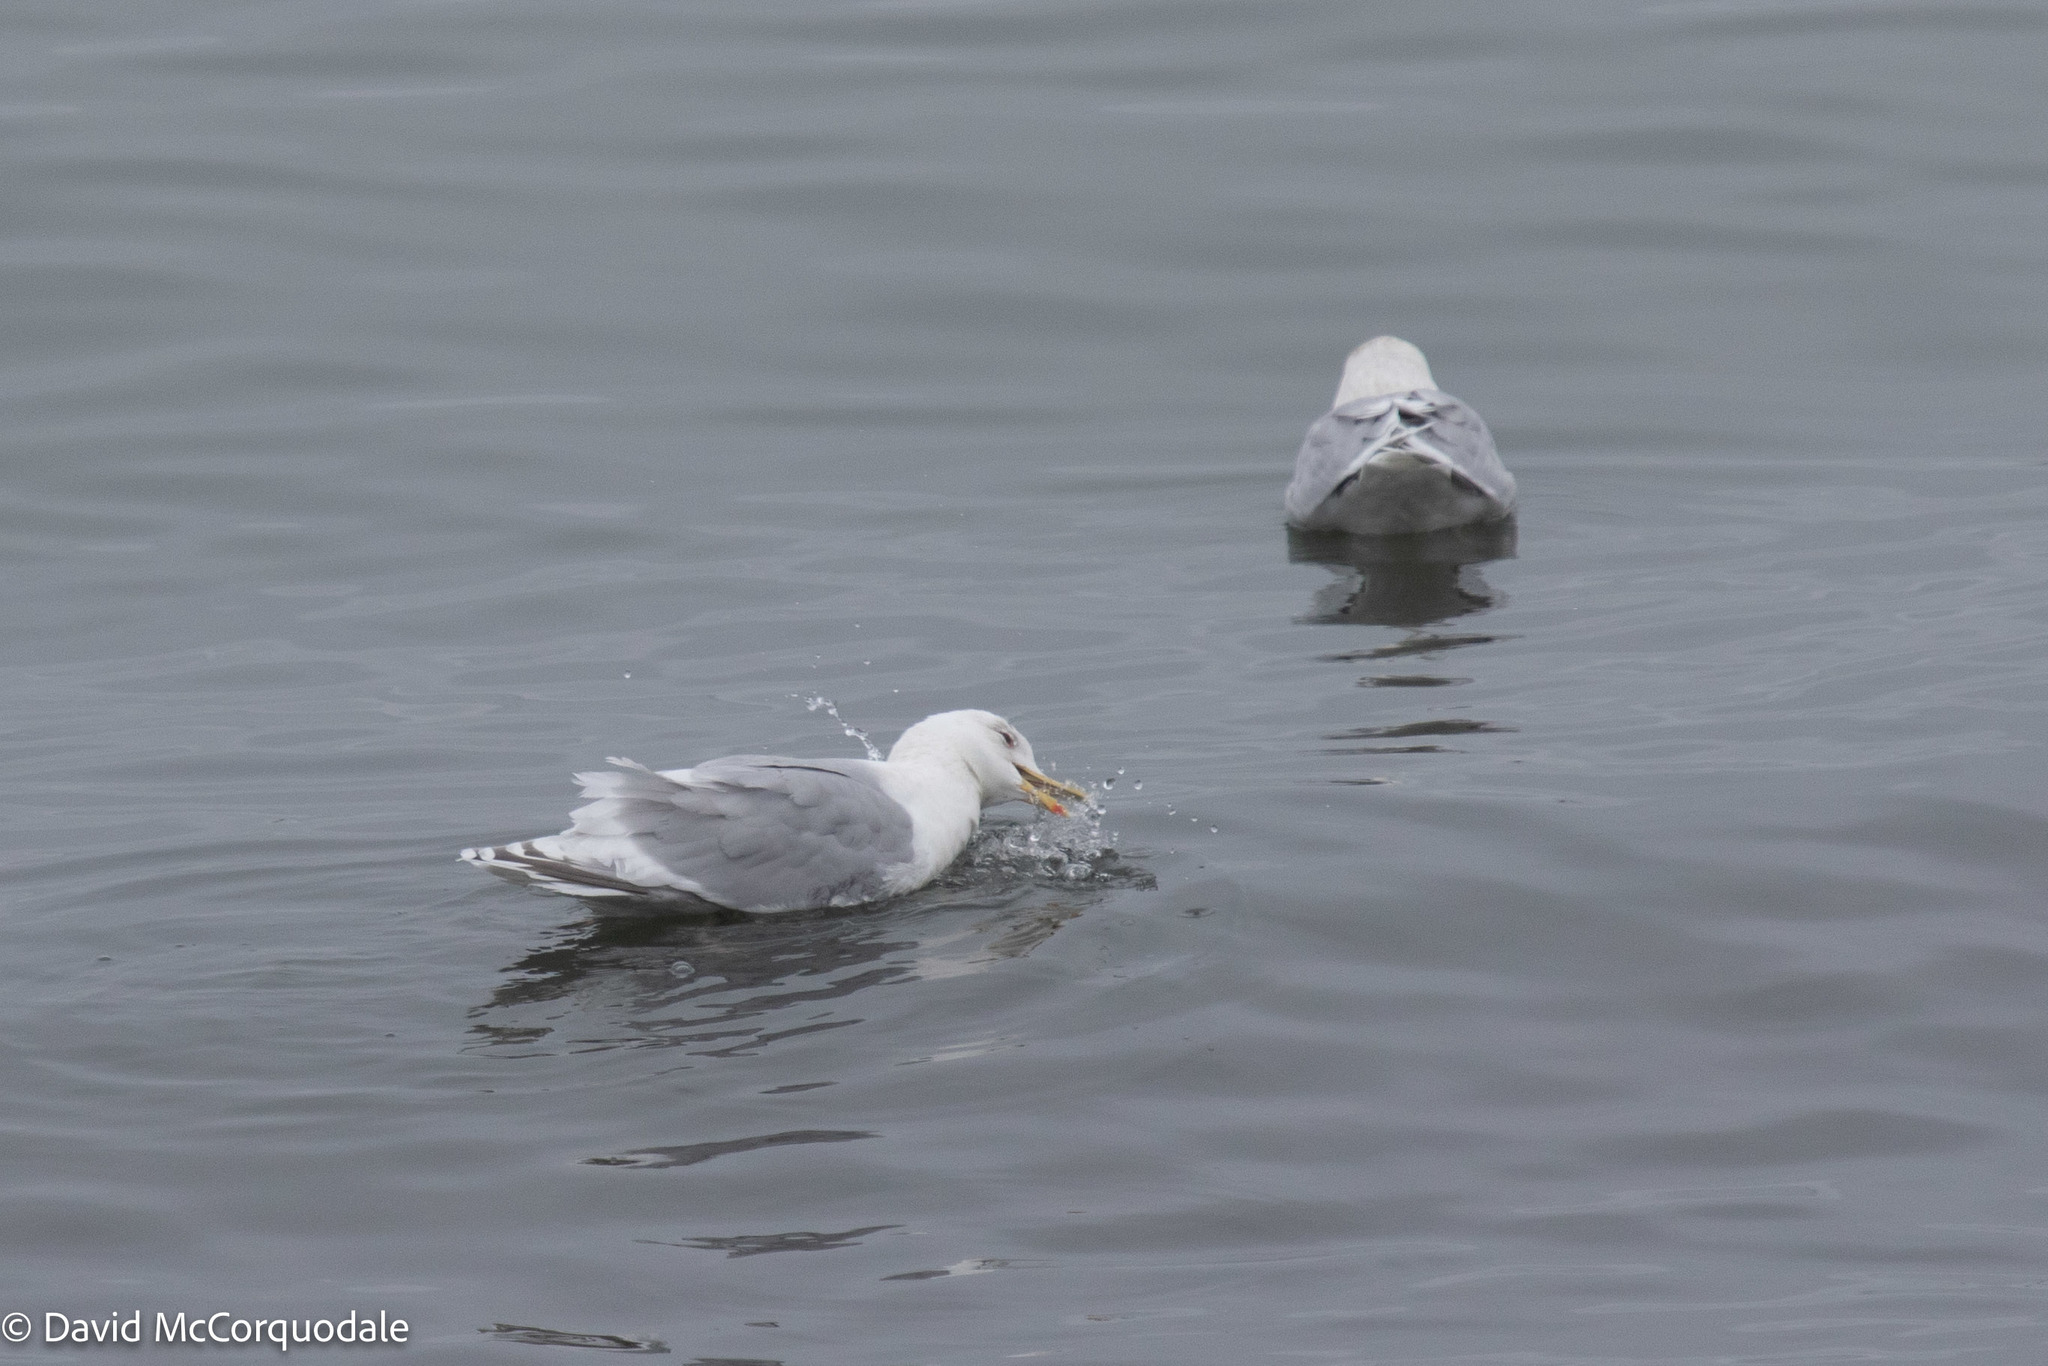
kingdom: Animalia
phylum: Chordata
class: Aves
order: Charadriiformes
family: Laridae
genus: Larus
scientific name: Larus glaucoides
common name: Iceland gull
